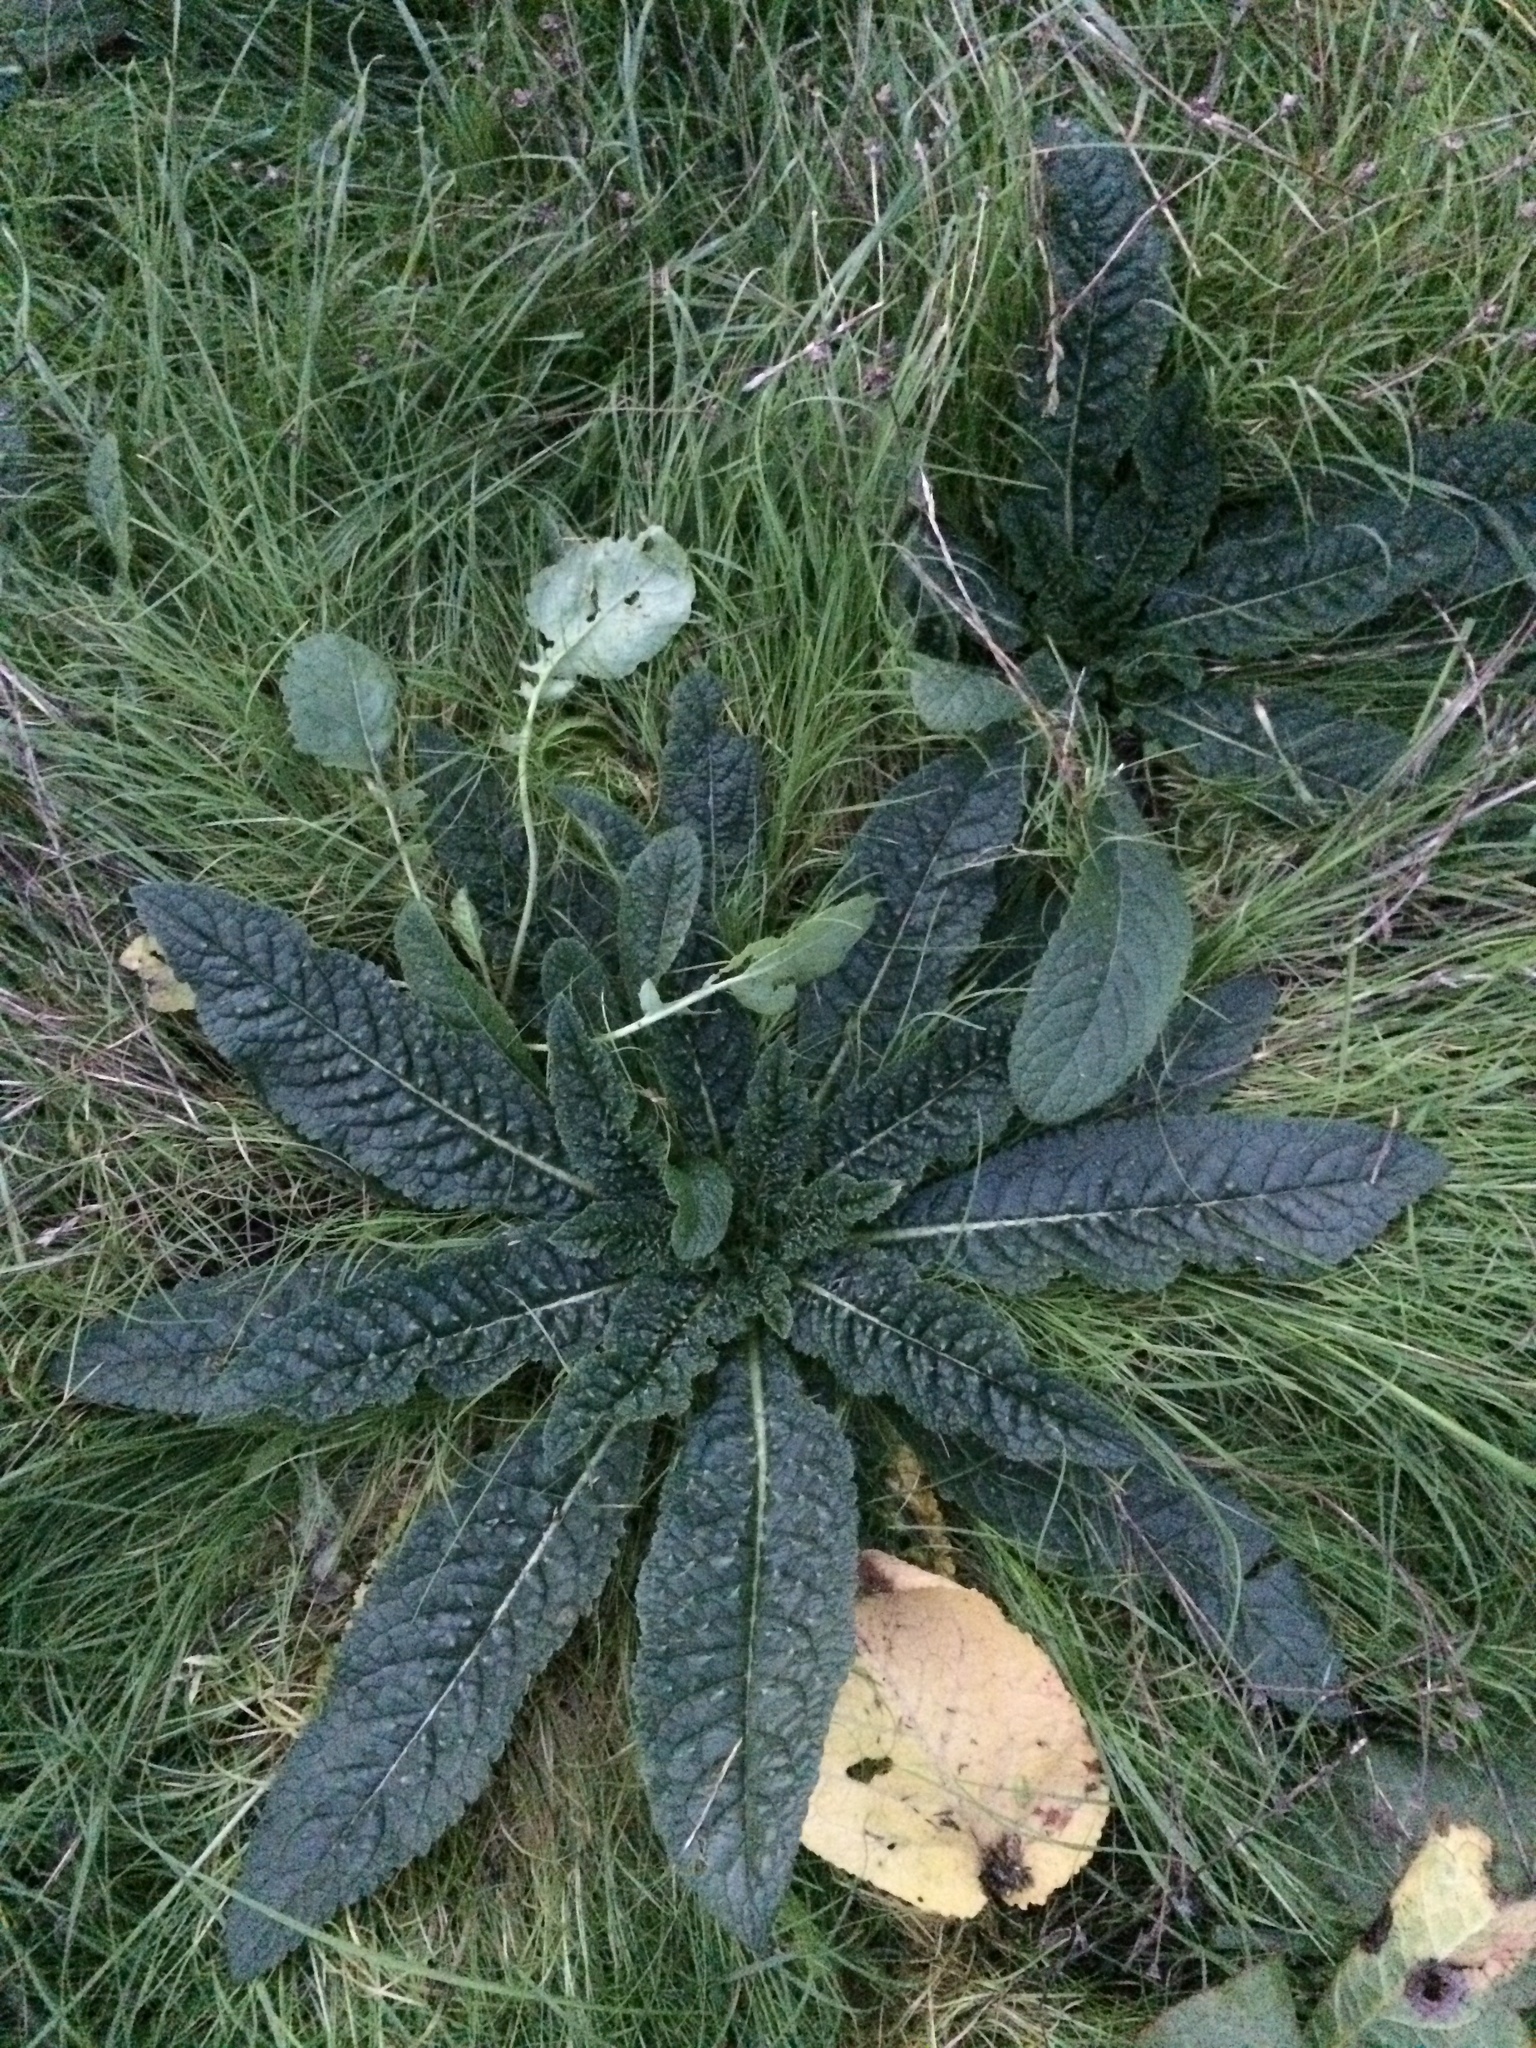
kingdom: Plantae
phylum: Tracheophyta
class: Magnoliopsida
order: Dipsacales
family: Caprifoliaceae
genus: Dipsacus
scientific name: Dipsacus fullonum
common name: Teasel
